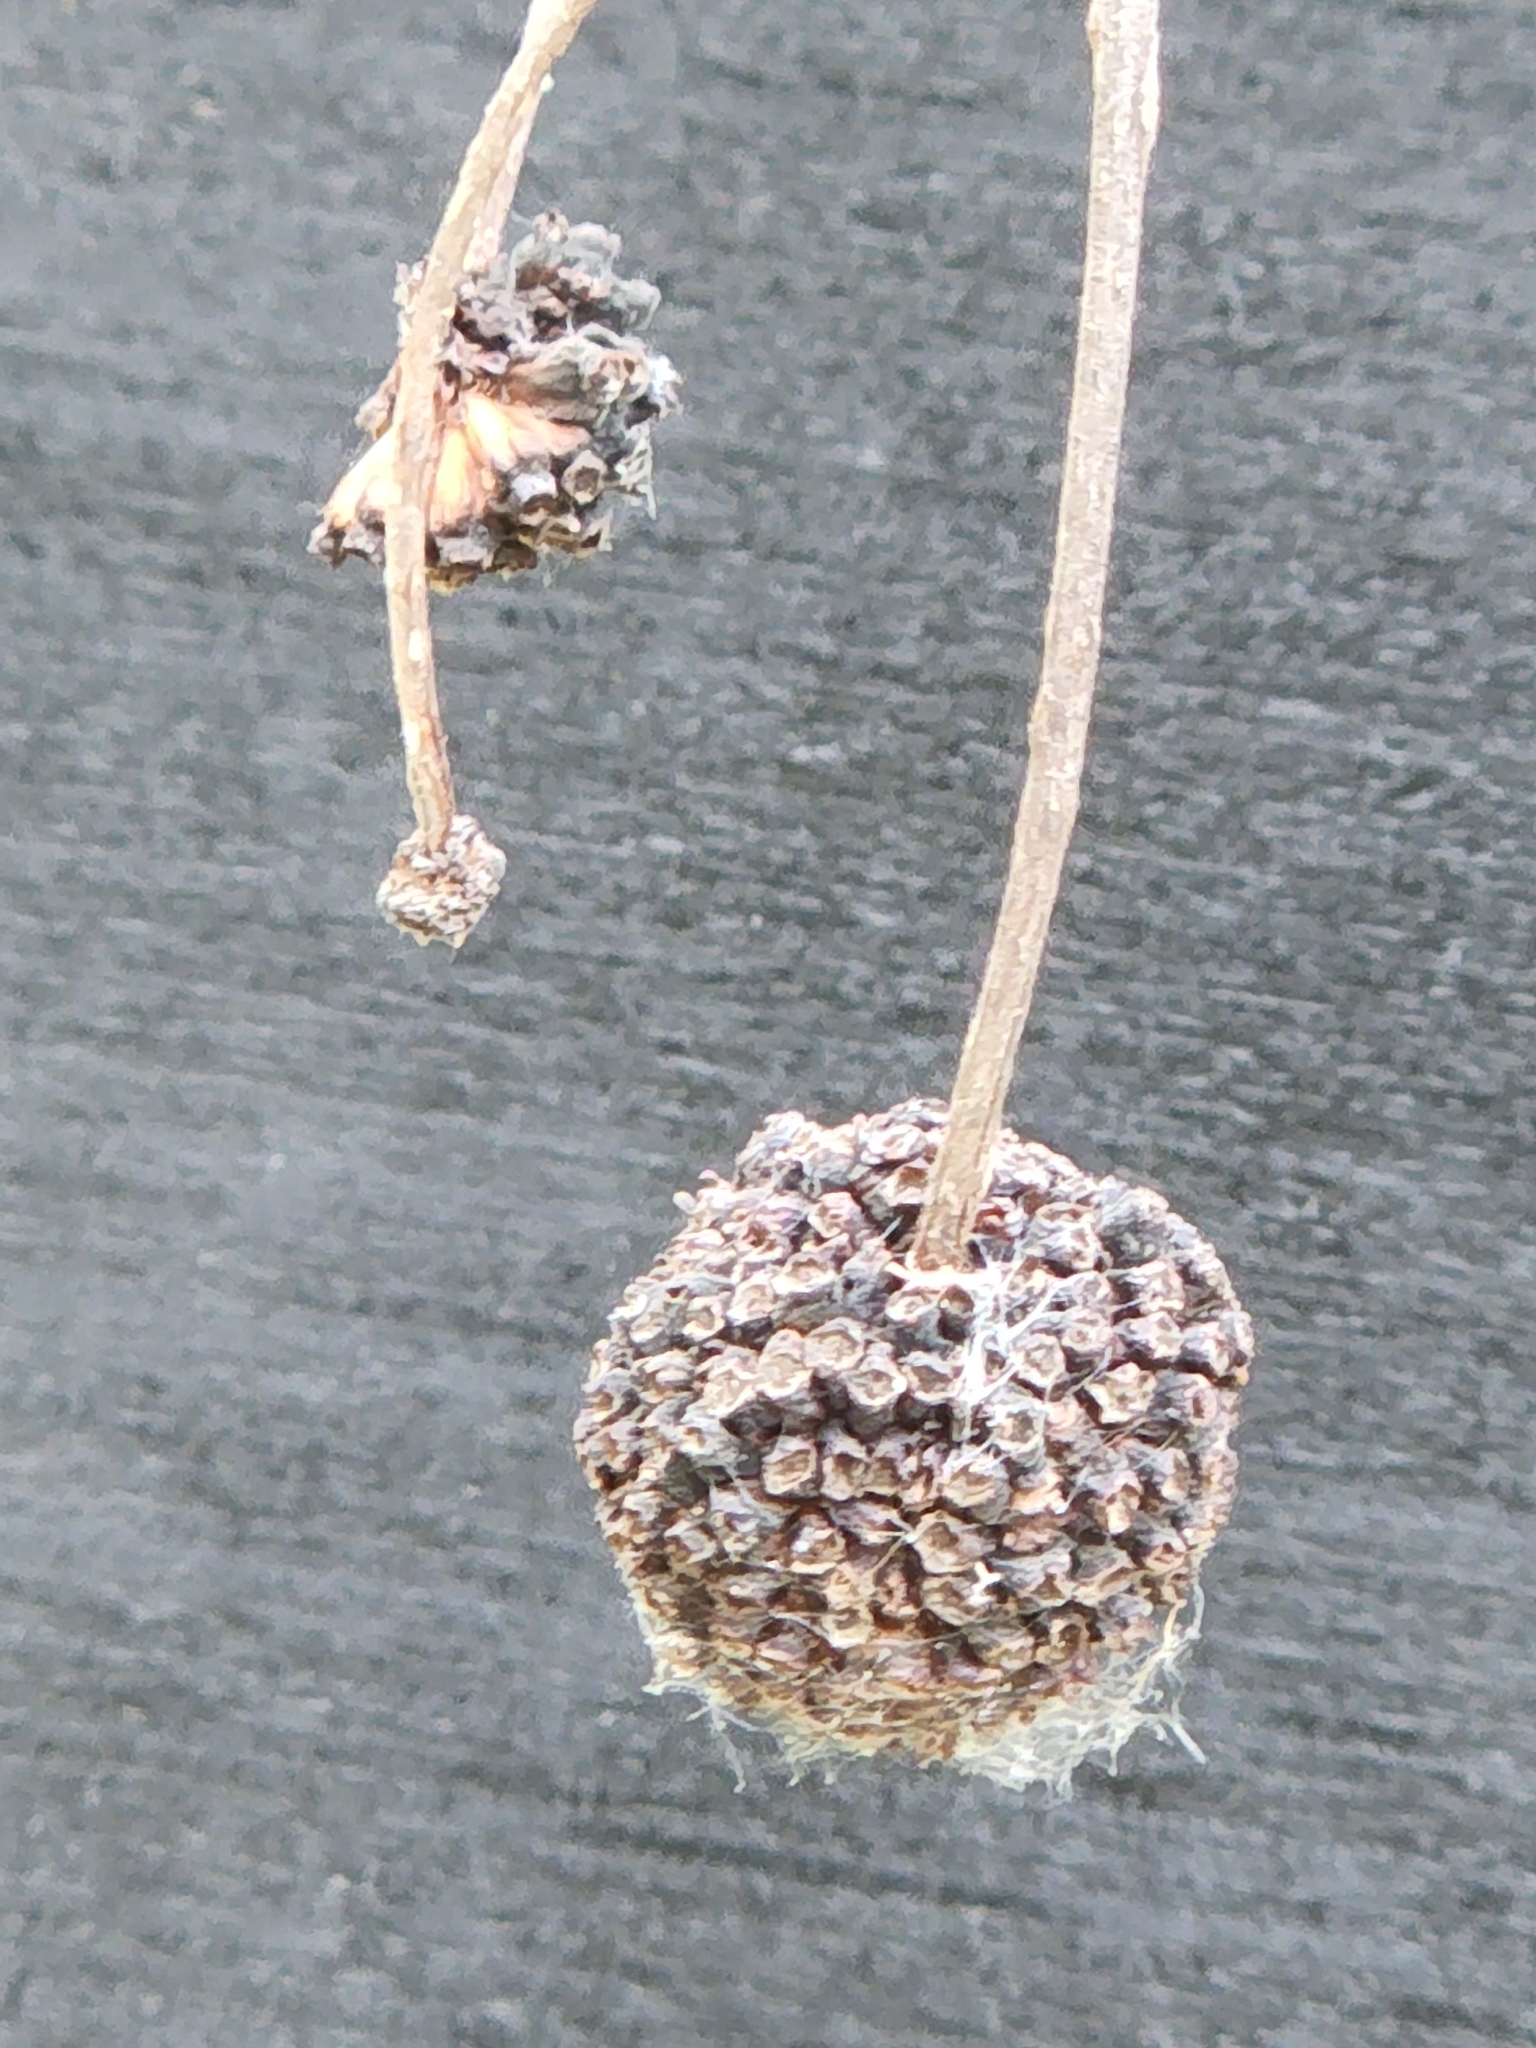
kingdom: Plantae
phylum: Tracheophyta
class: Magnoliopsida
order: Gentianales
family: Rubiaceae
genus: Cephalanthus
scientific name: Cephalanthus occidentalis
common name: Button-willow
